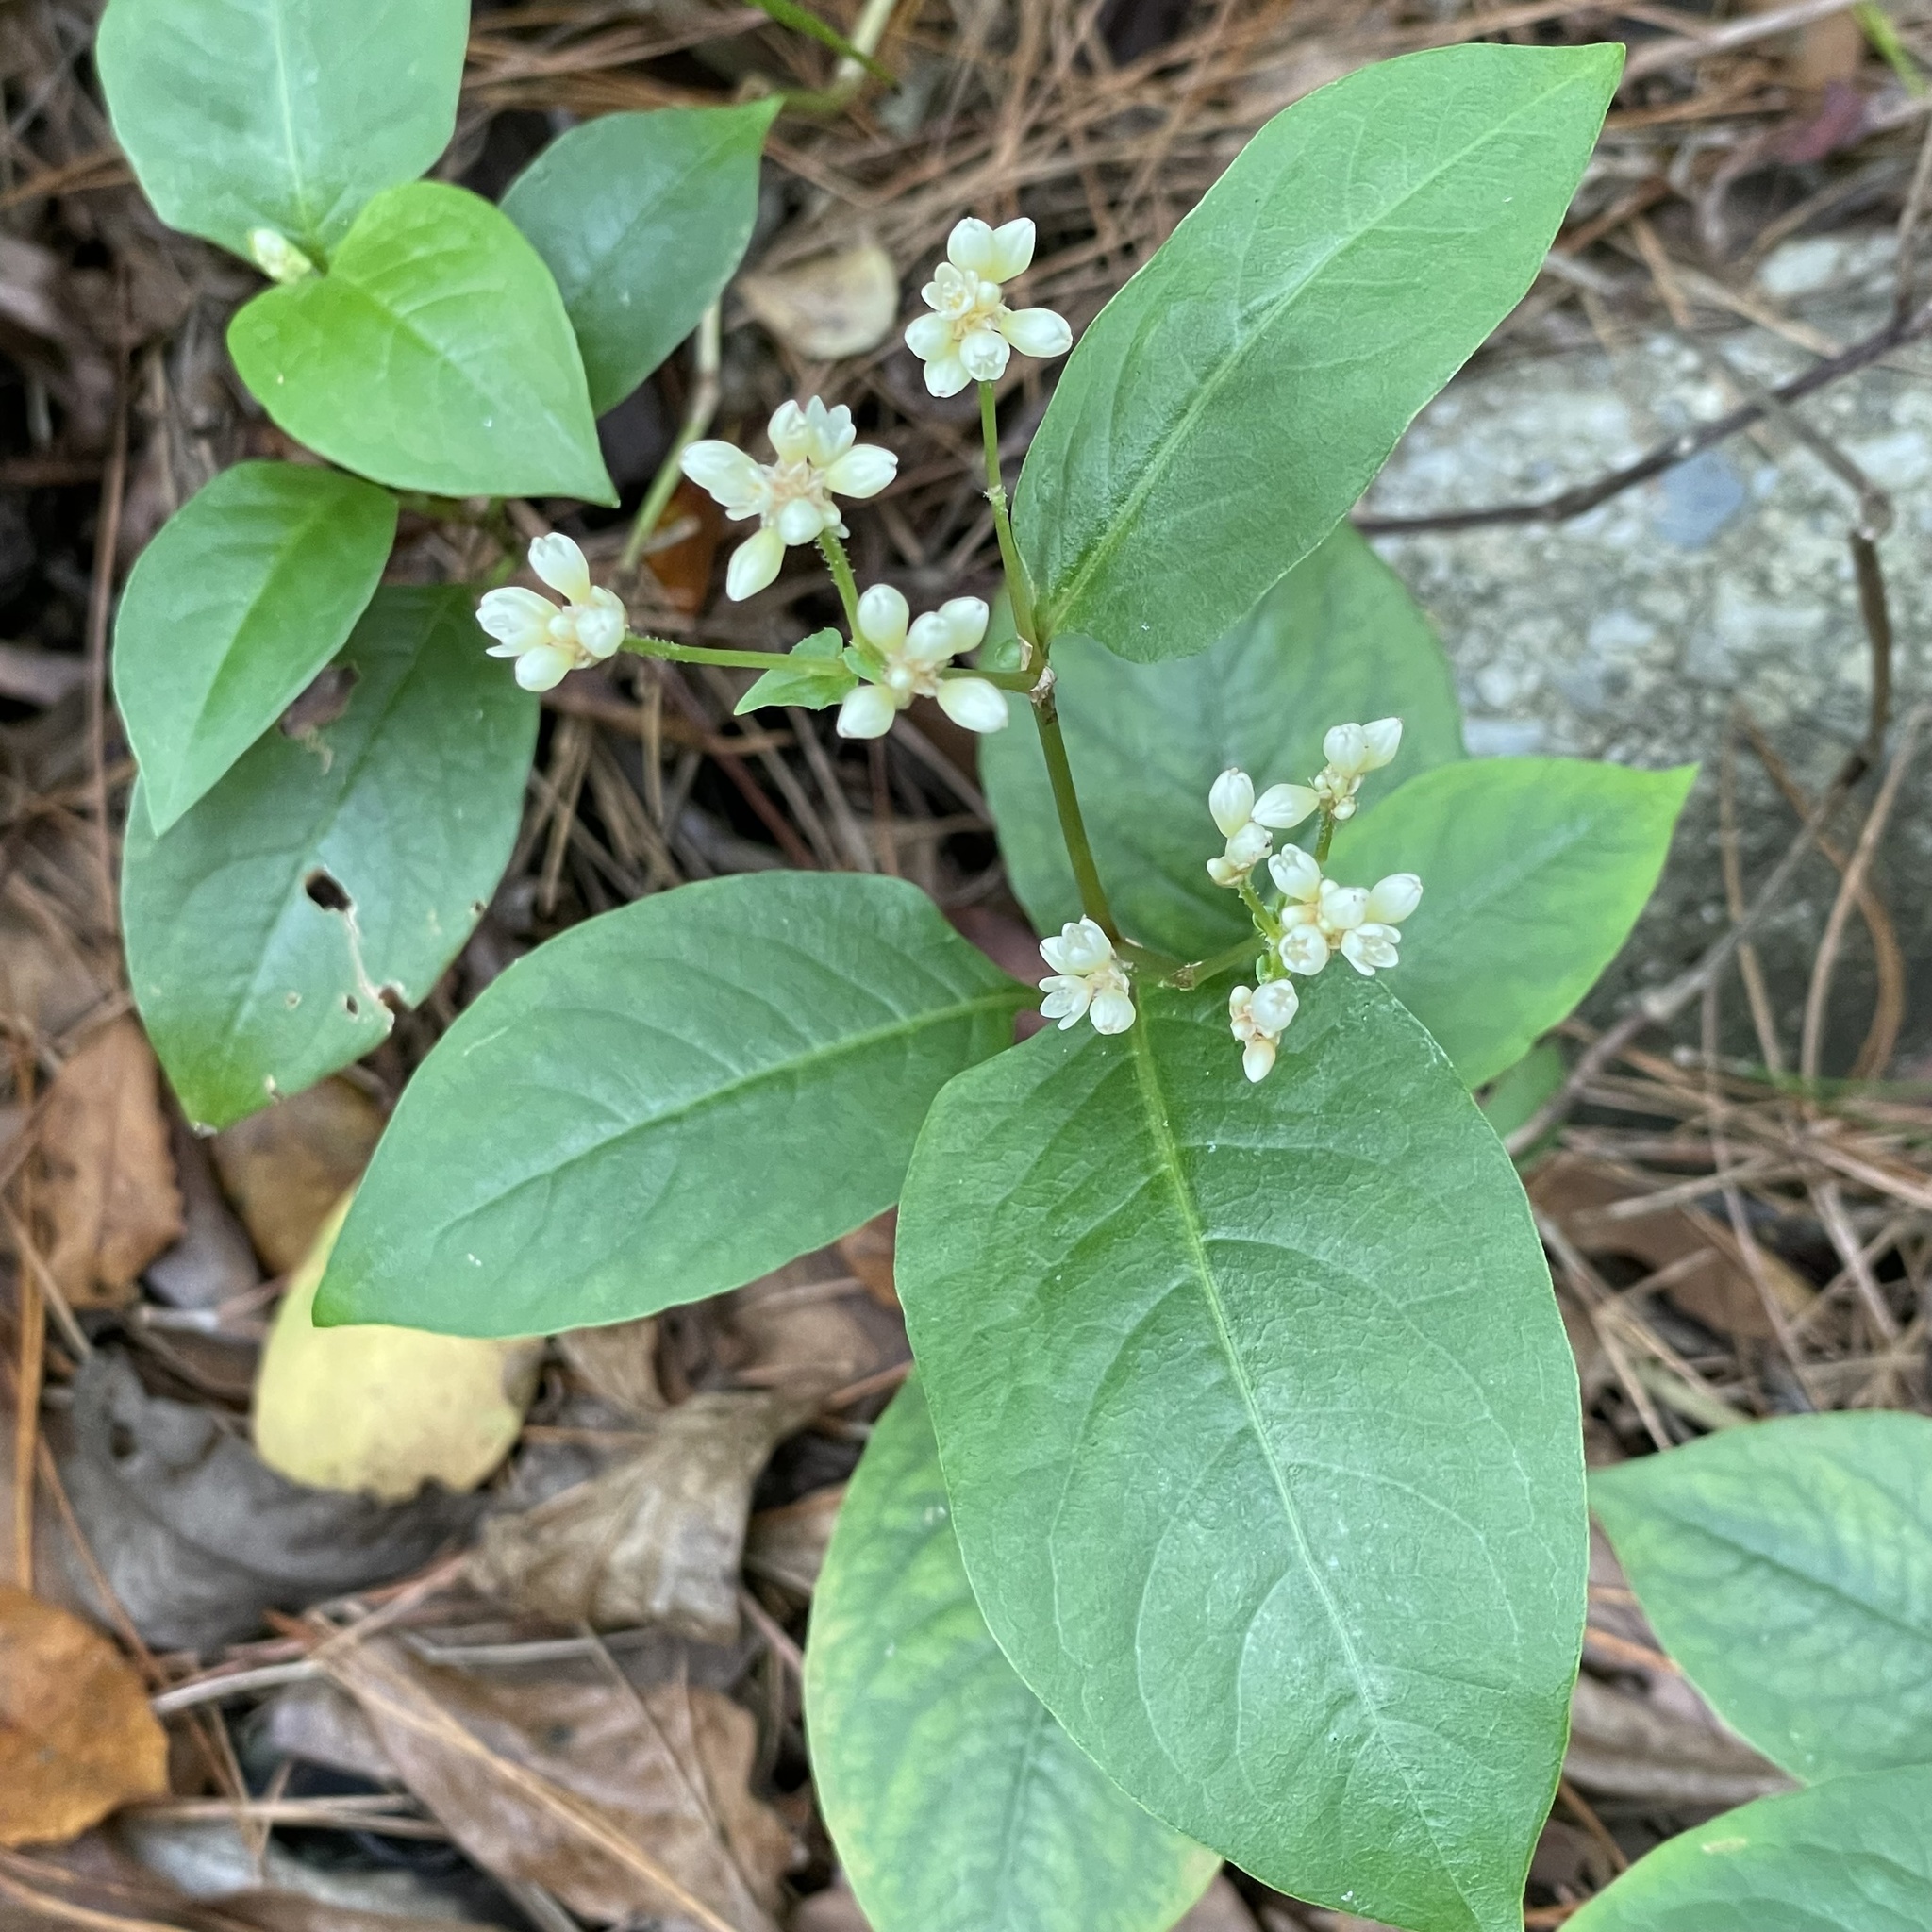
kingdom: Plantae
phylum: Tracheophyta
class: Magnoliopsida
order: Caryophyllales
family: Polygonaceae
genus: Persicaria
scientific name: Persicaria chinensis
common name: Chinese knotweed
